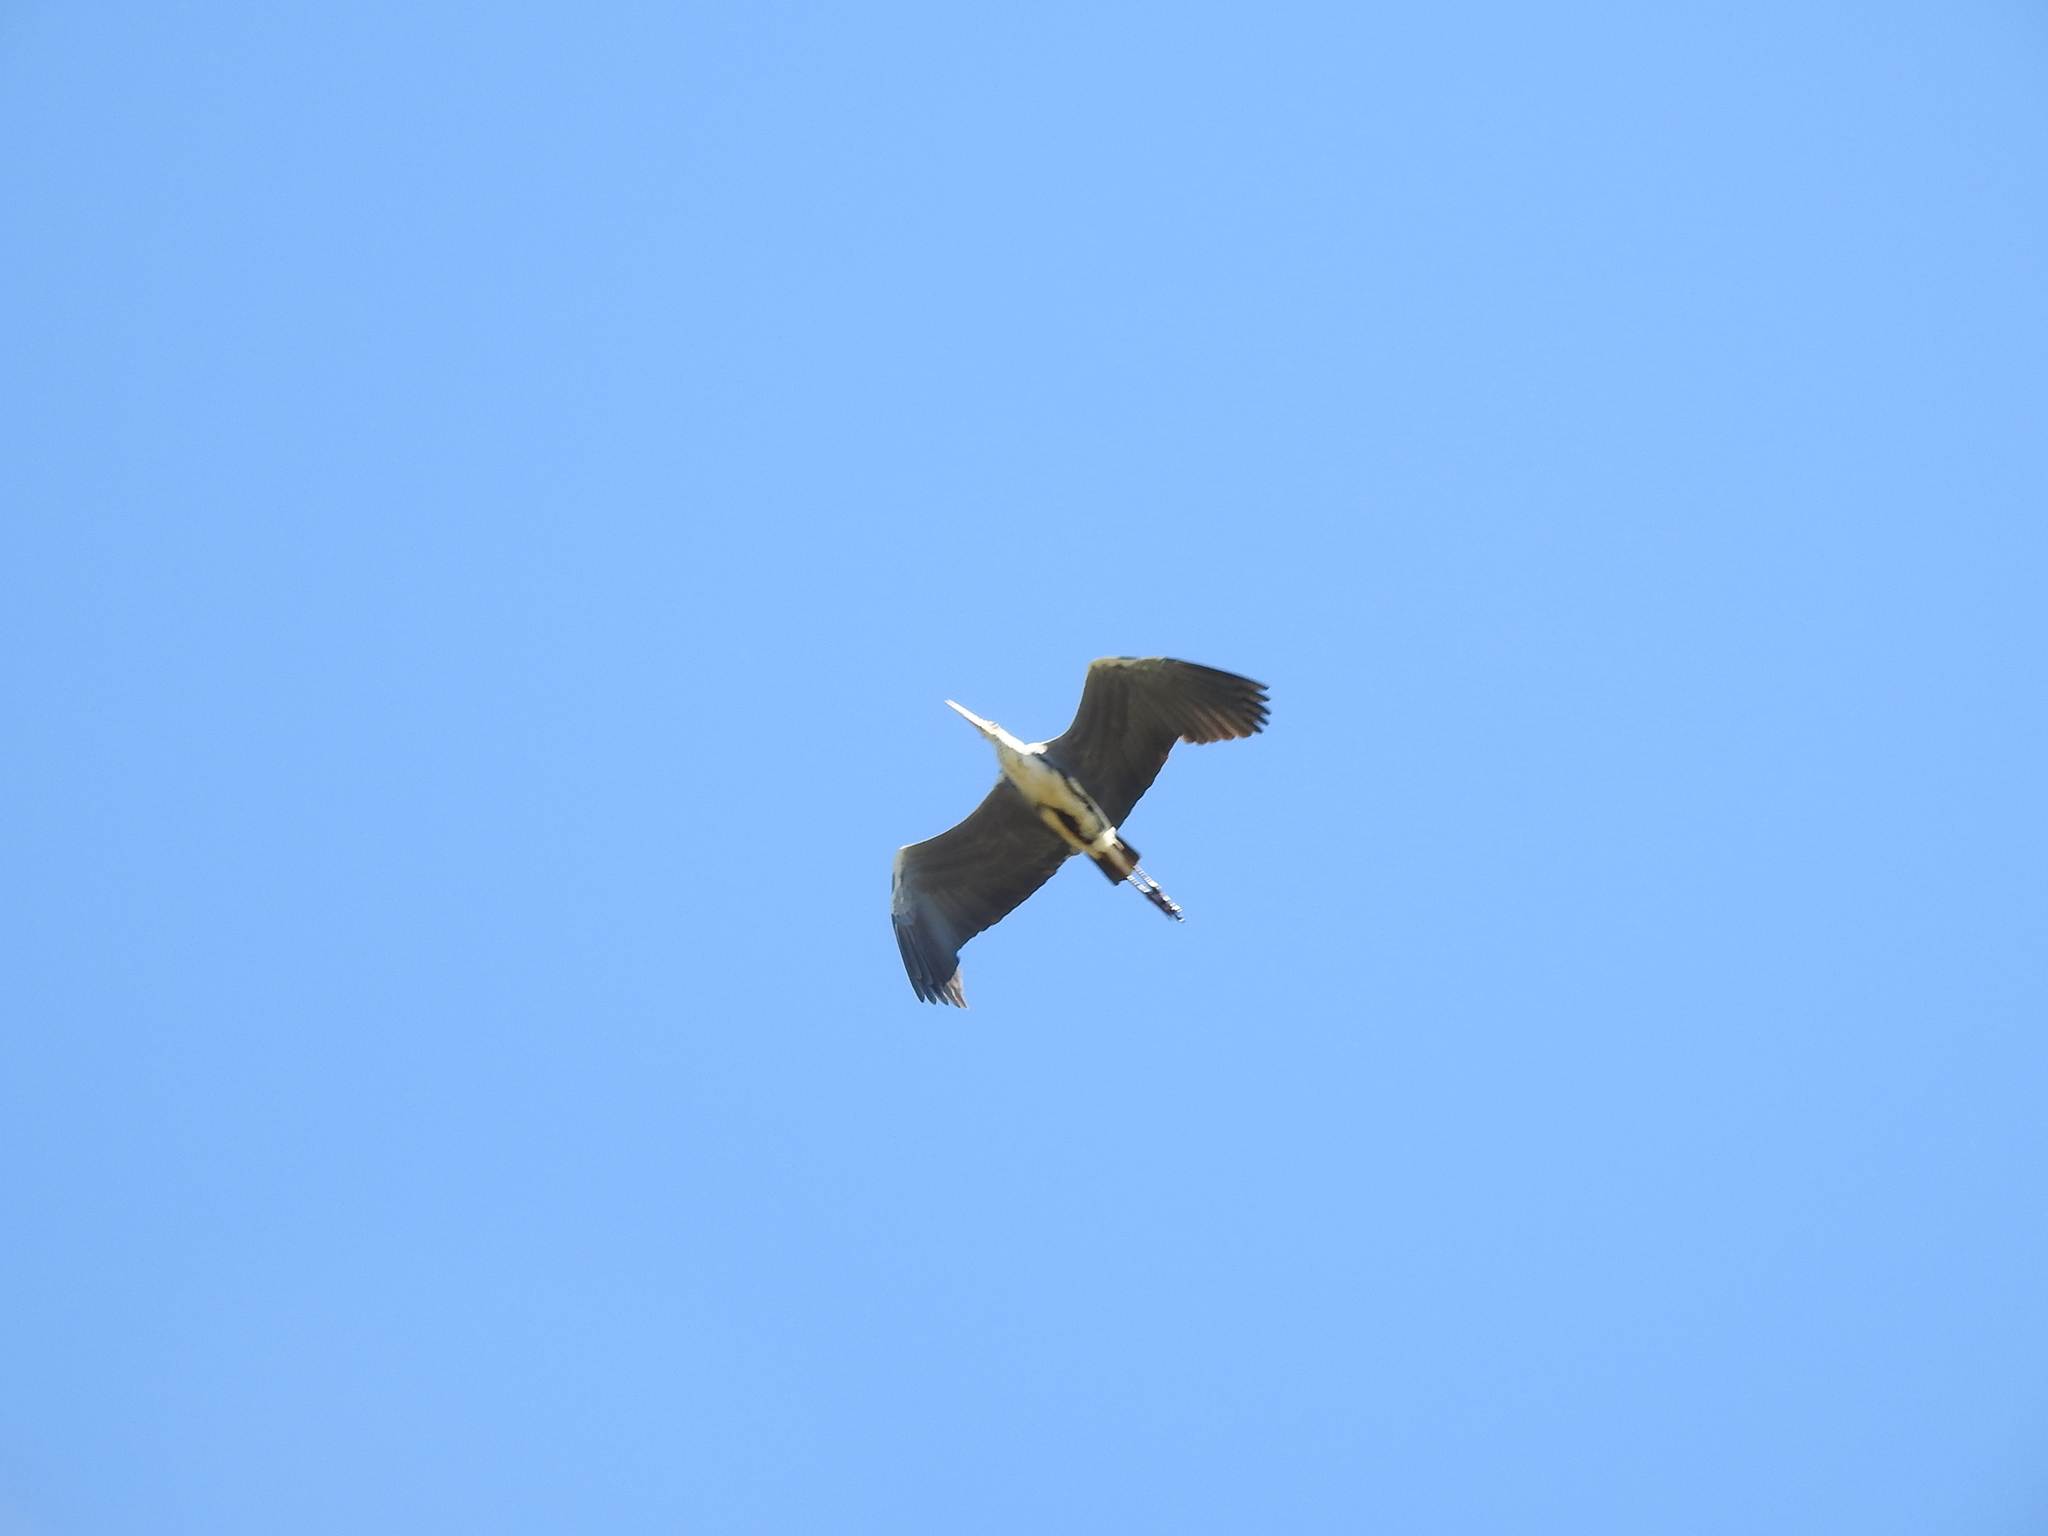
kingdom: Animalia
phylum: Chordata
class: Aves
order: Pelecaniformes
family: Ardeidae
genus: Ardea
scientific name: Ardea cinerea
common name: Grey heron
